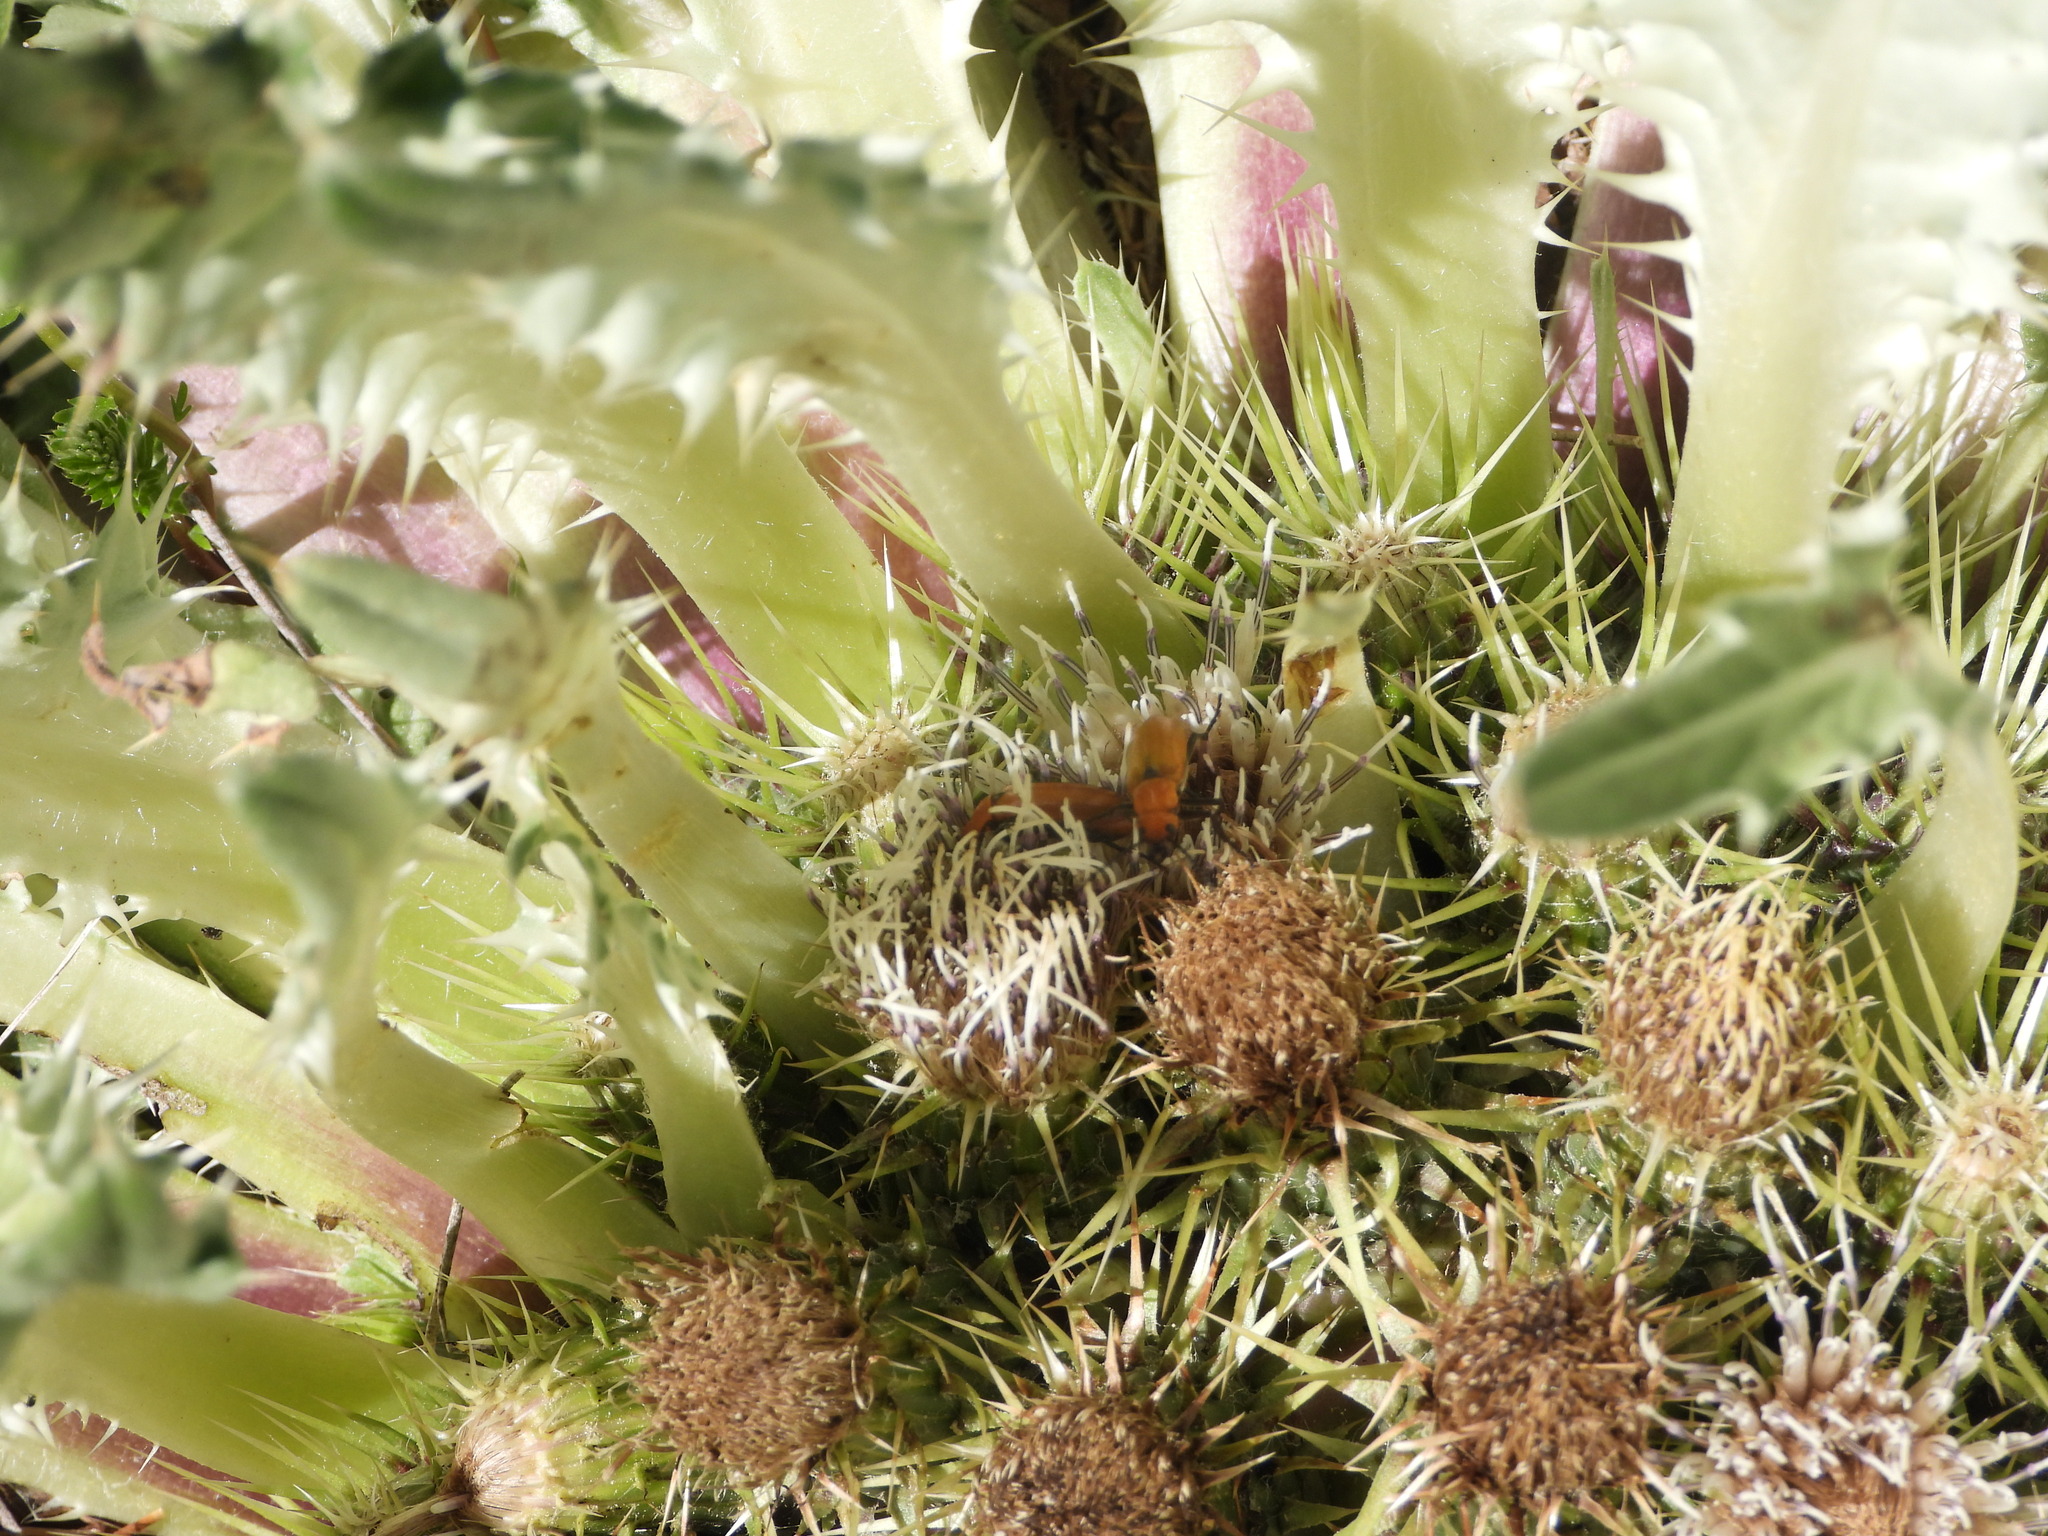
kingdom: Plantae
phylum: Tracheophyta
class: Magnoliopsida
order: Asterales
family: Asteraceae
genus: Cirsium
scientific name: Cirsium tioganum
